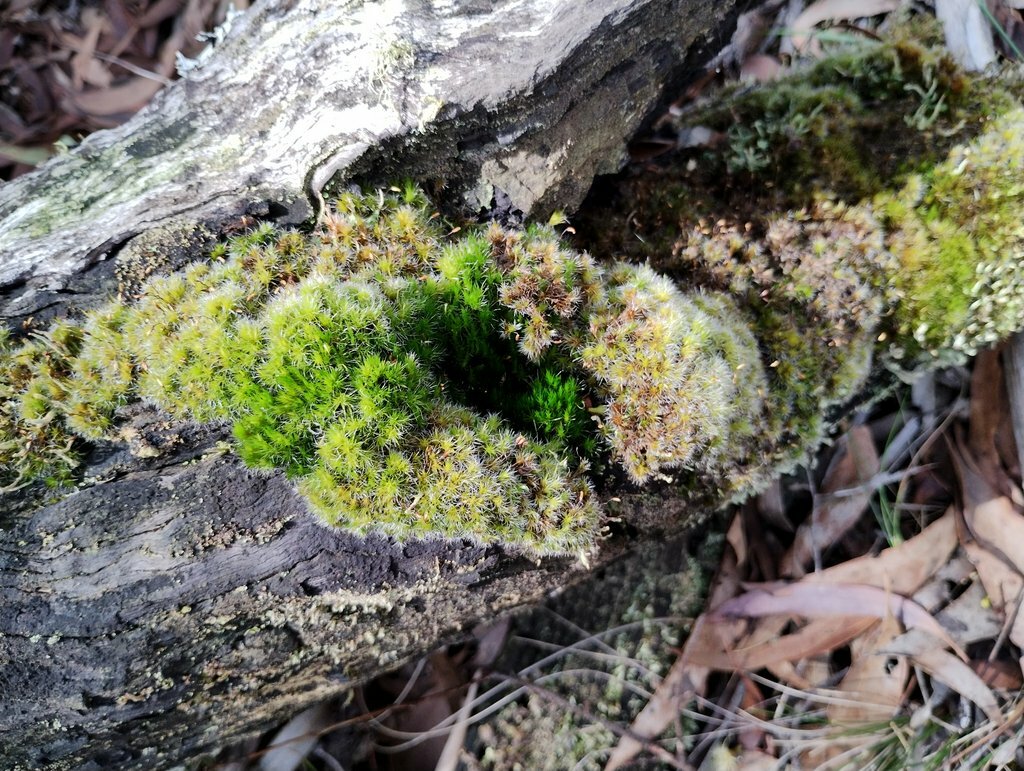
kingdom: Plantae
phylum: Bryophyta
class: Bryopsida
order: Dicranales
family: Leucobryaceae
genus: Campylopus
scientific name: Campylopus introflexus
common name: Heath star moss
